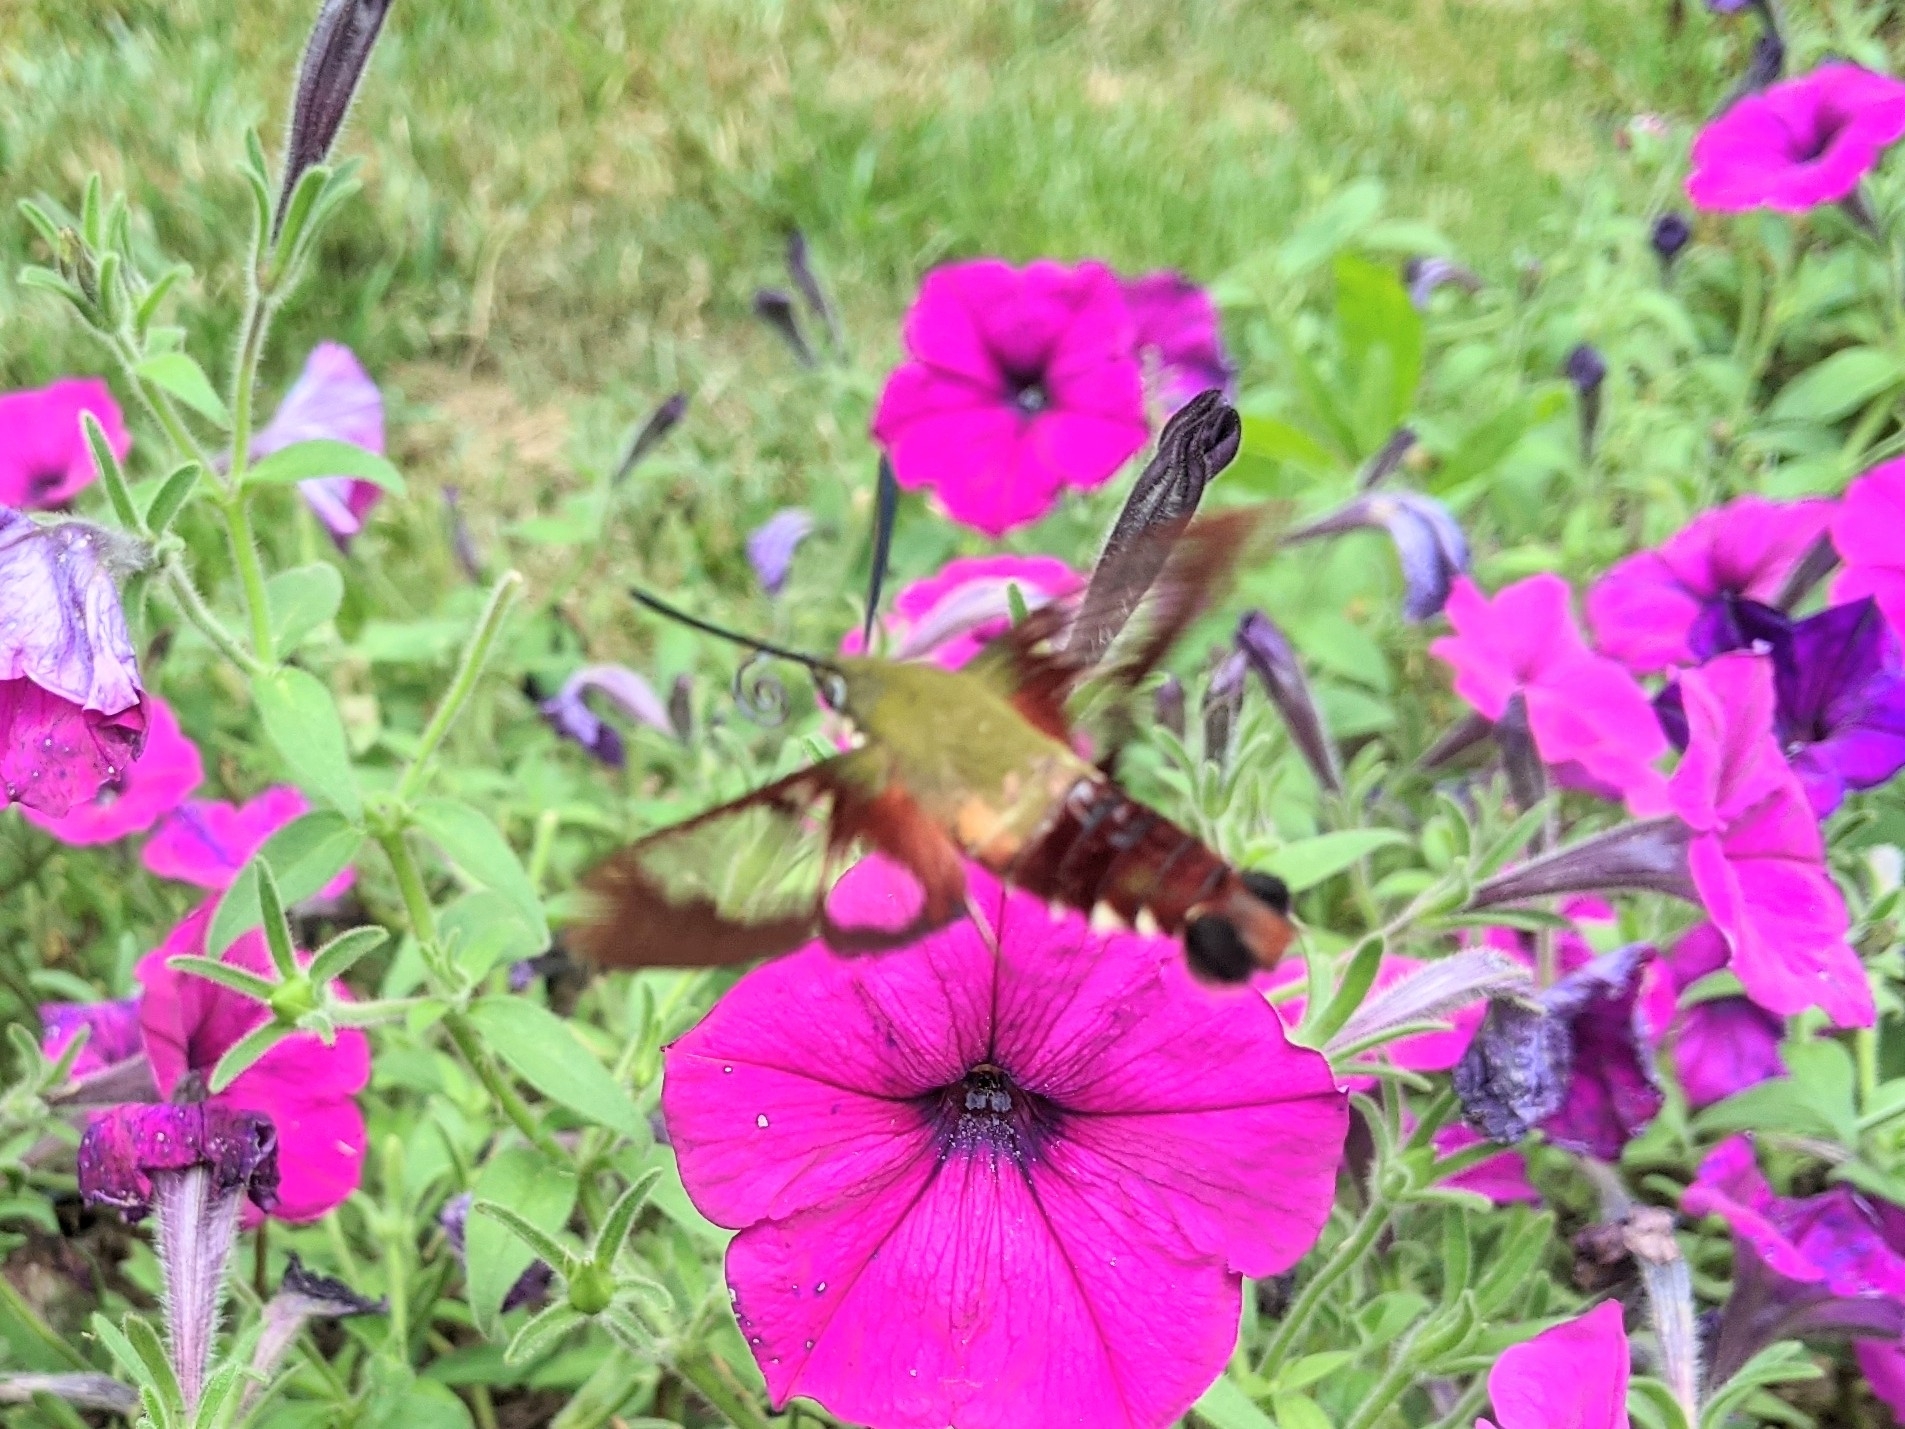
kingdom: Animalia
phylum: Arthropoda
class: Insecta
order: Lepidoptera
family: Sphingidae
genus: Hemaris
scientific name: Hemaris thysbe
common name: Common clear-wing
